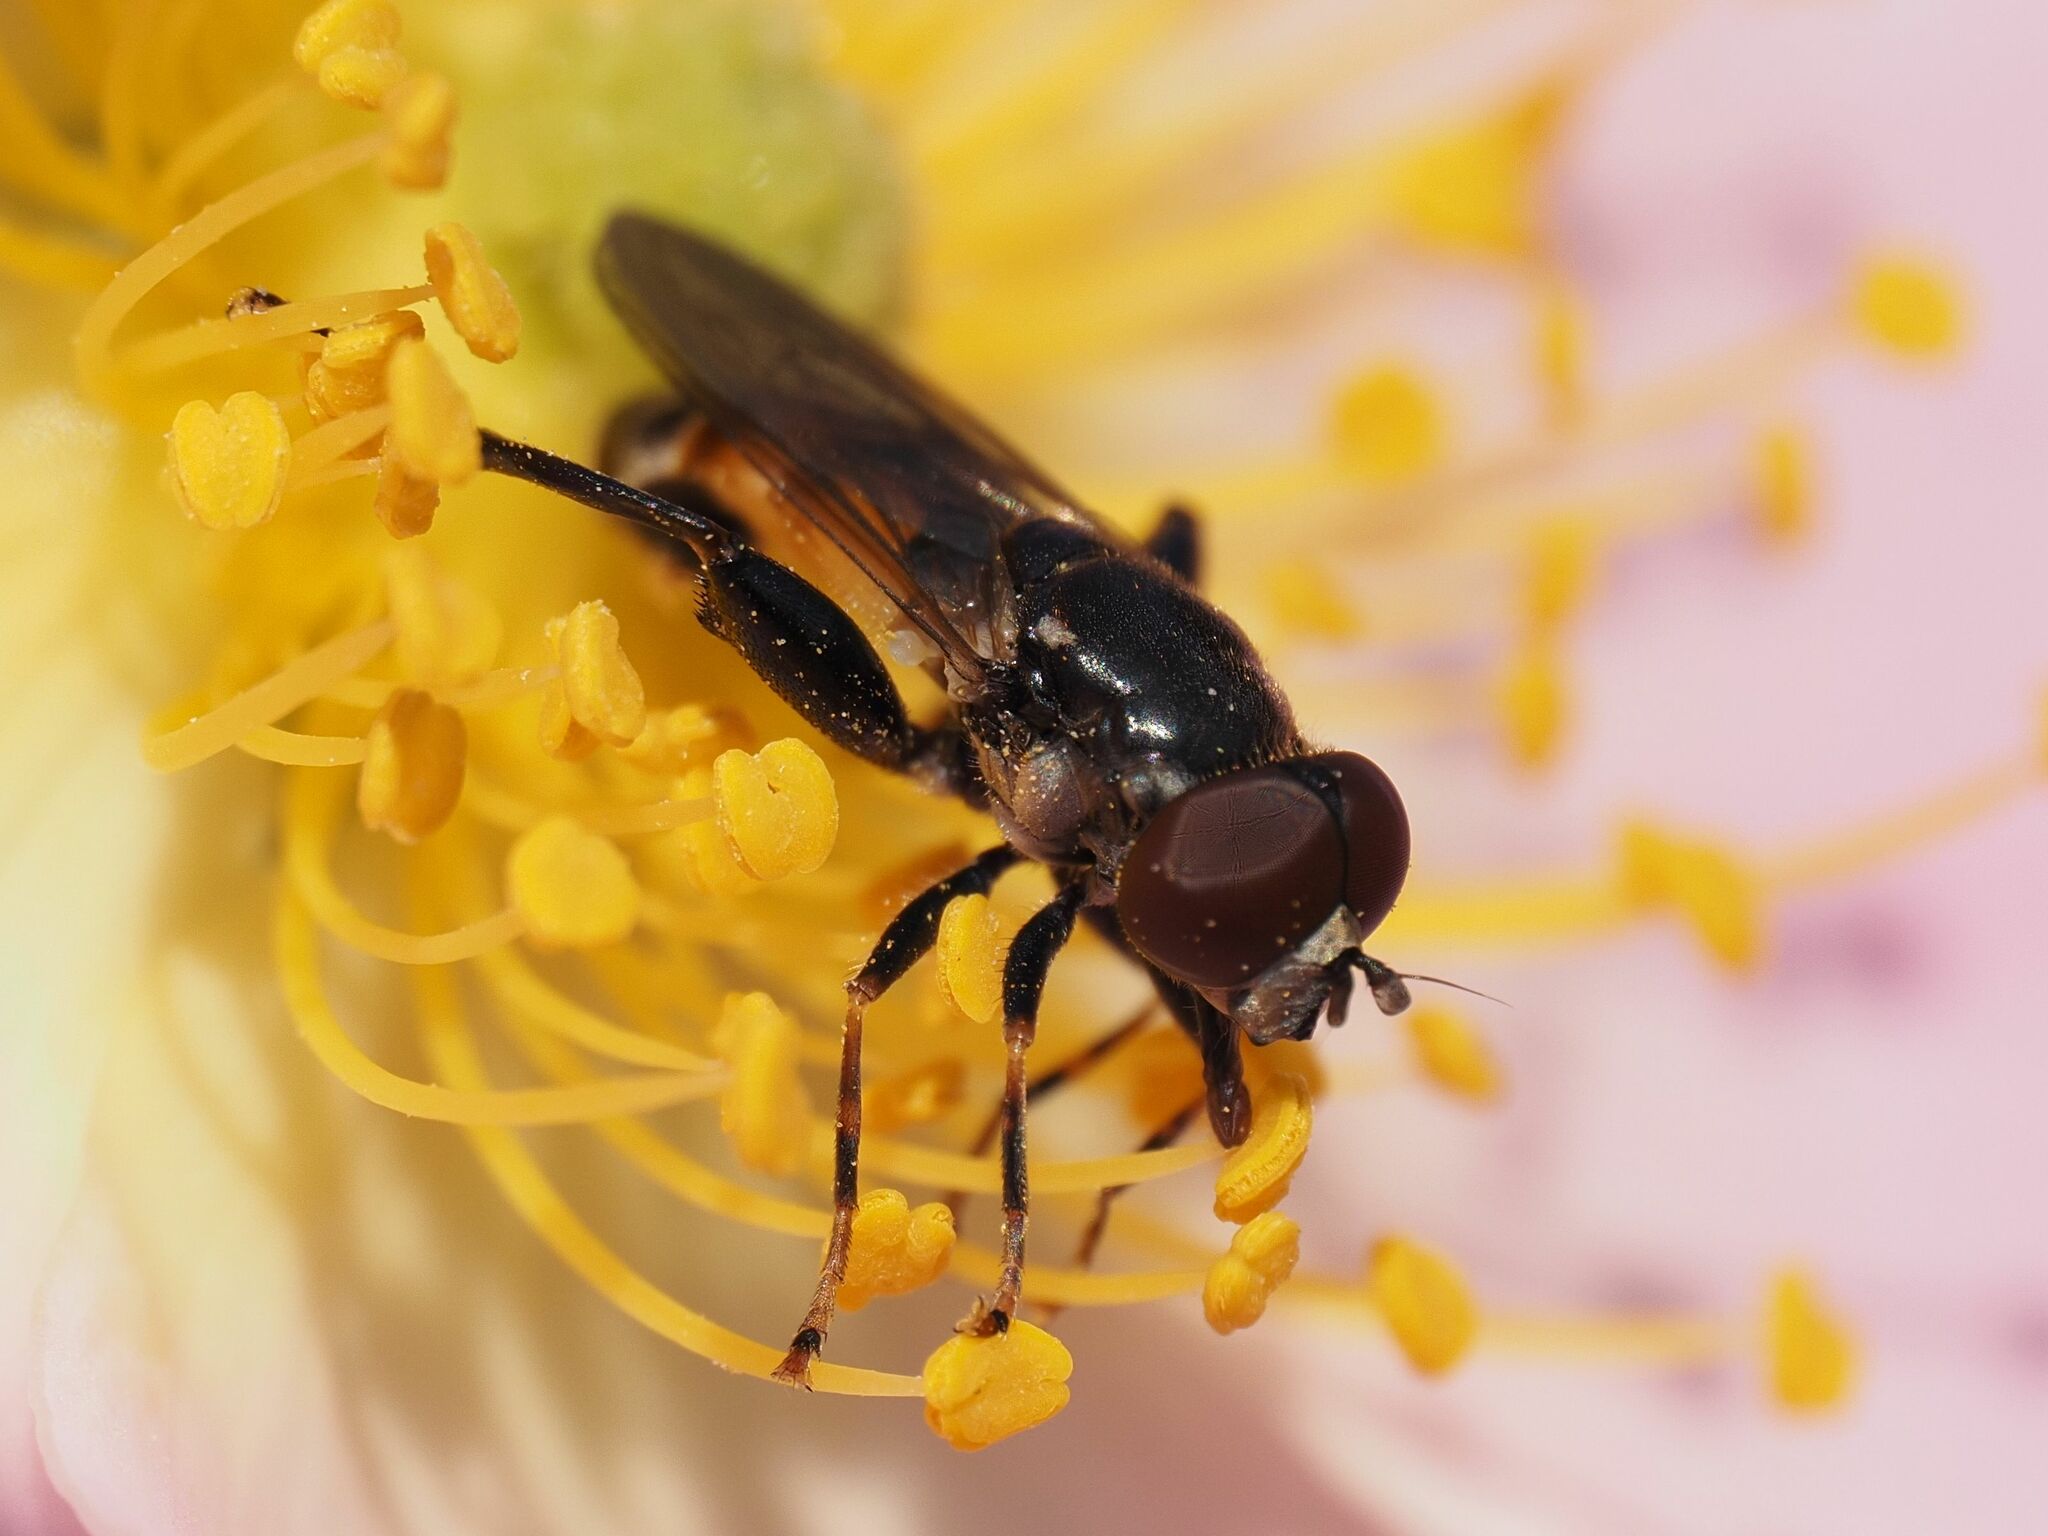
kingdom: Animalia
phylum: Arthropoda
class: Insecta
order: Diptera
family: Syrphidae
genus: Tropidia
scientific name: Tropidia scita
